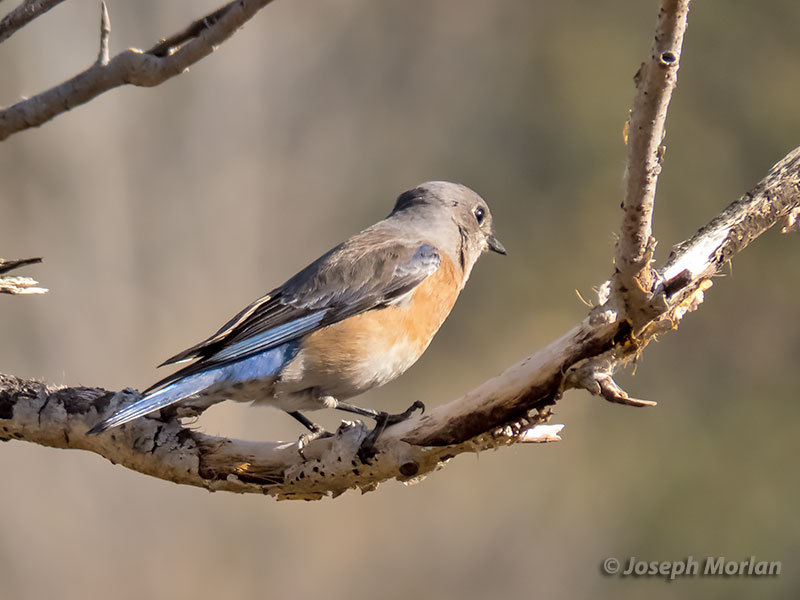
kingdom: Animalia
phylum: Chordata
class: Aves
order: Passeriformes
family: Turdidae
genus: Sialia
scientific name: Sialia mexicana
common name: Western bluebird
